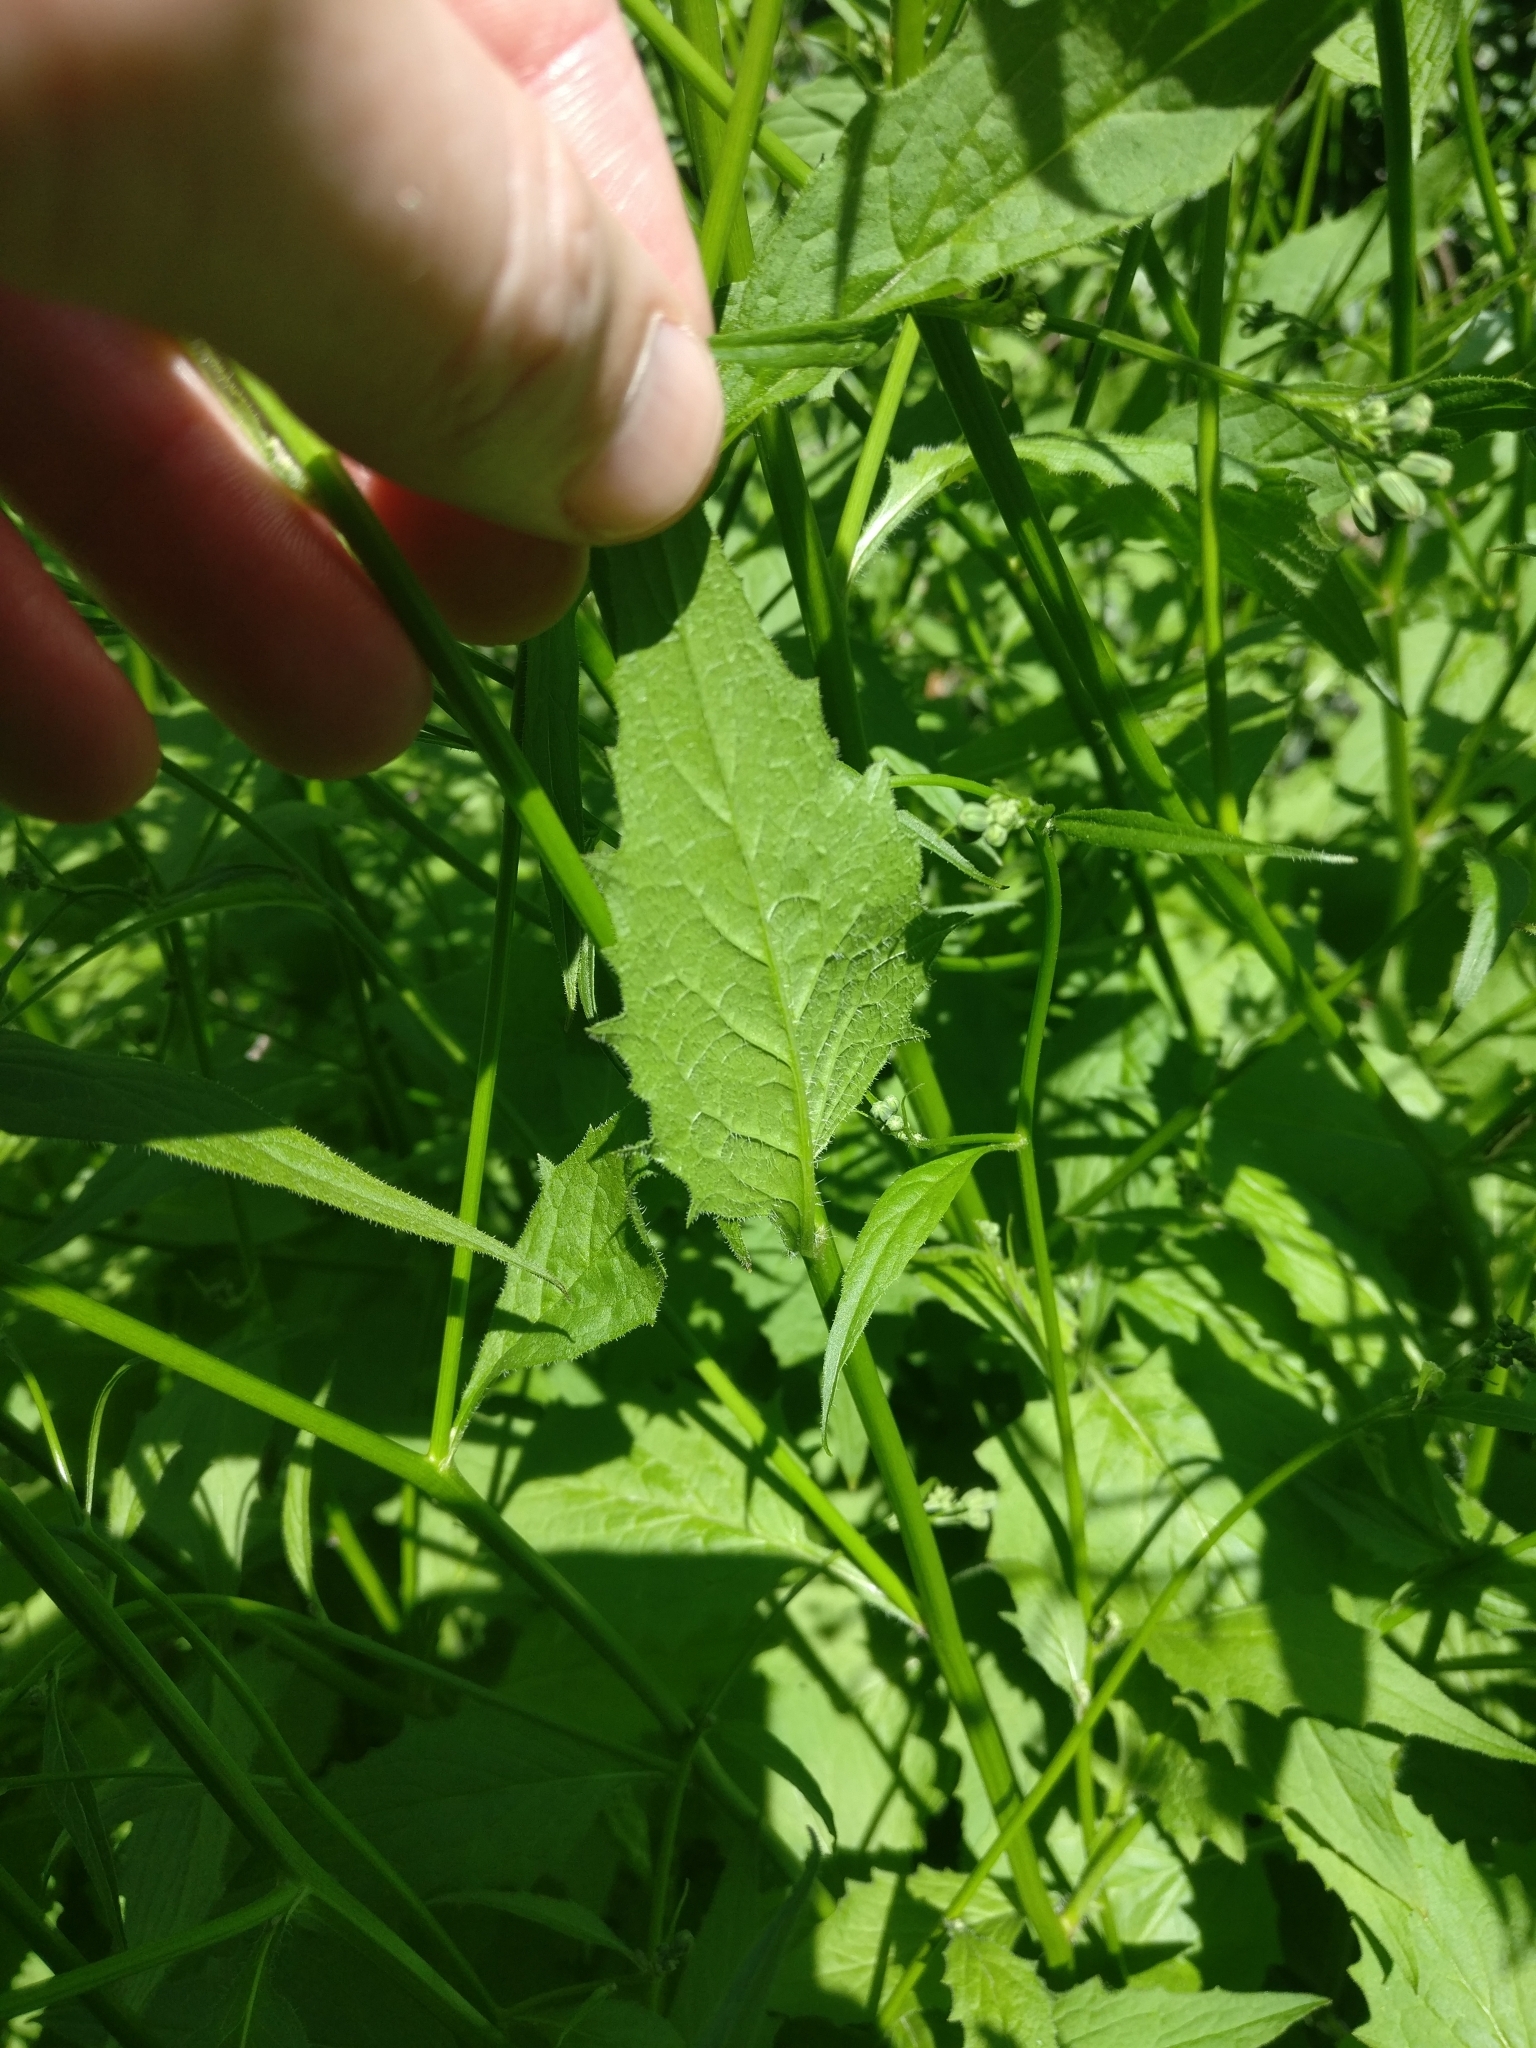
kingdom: Plantae
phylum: Tracheophyta
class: Magnoliopsida
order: Asterales
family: Asteraceae
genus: Lapsana
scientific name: Lapsana communis
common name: Nipplewort
